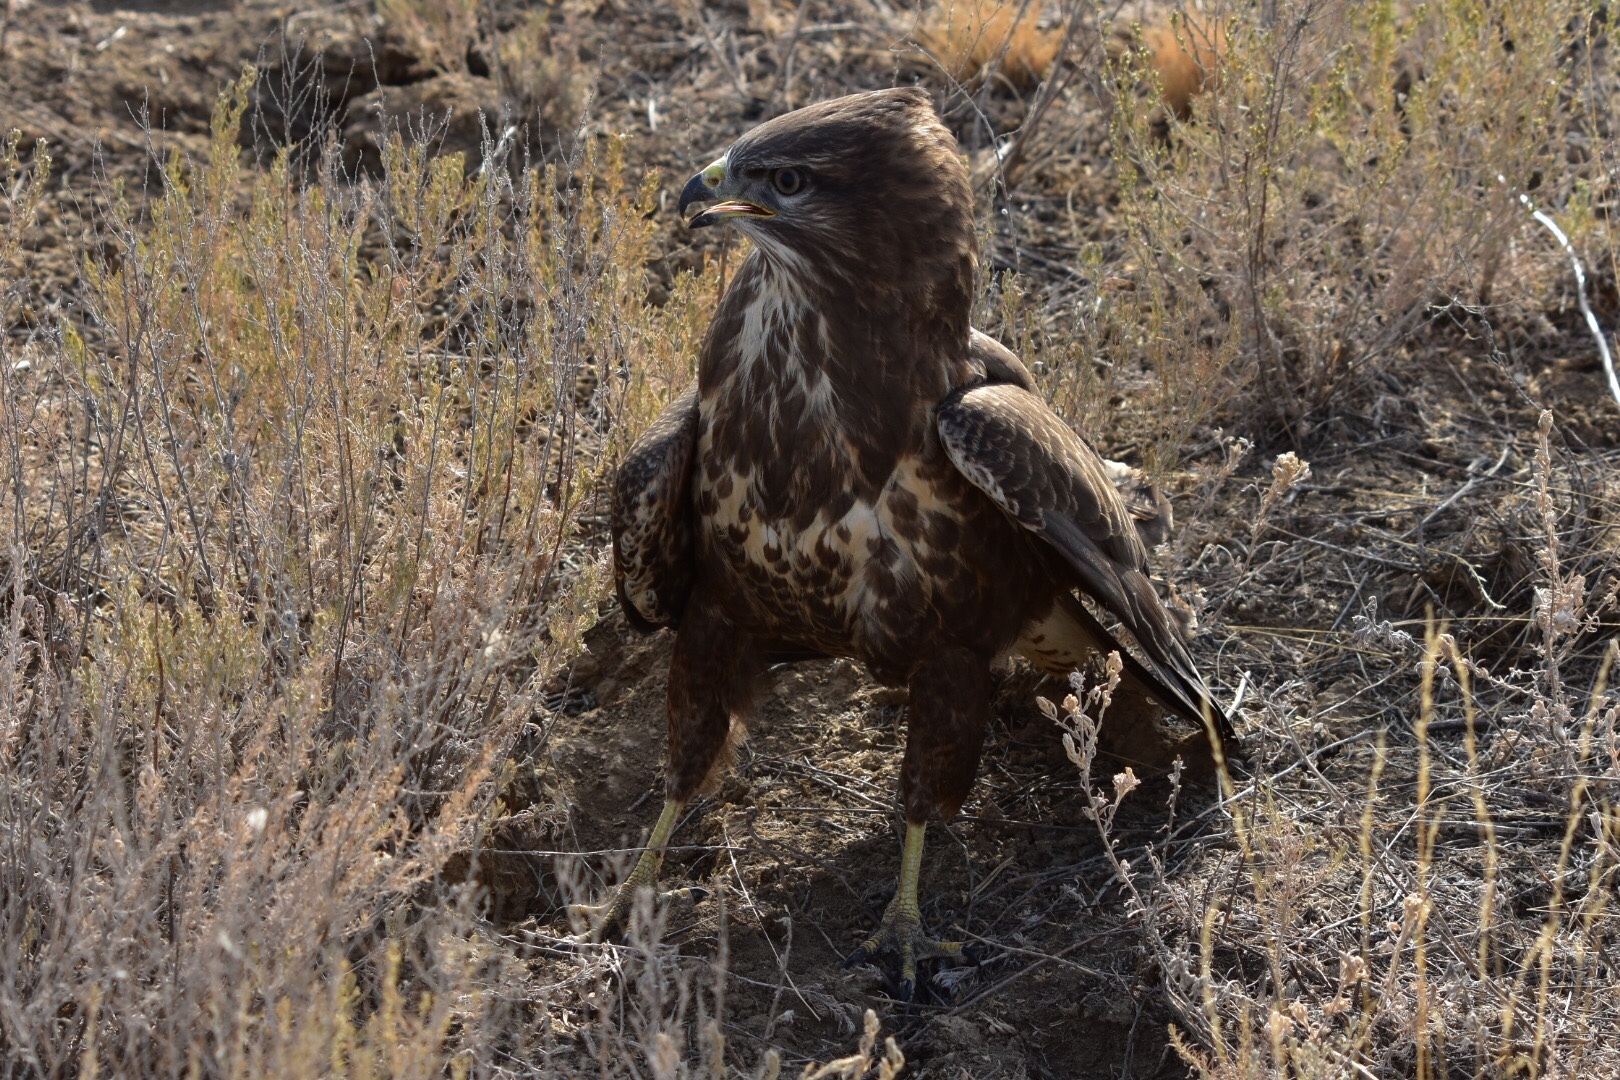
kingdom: Animalia
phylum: Chordata
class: Aves
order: Accipitriformes
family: Accipitridae
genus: Buteo
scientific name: Buteo buteo
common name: Common buzzard
